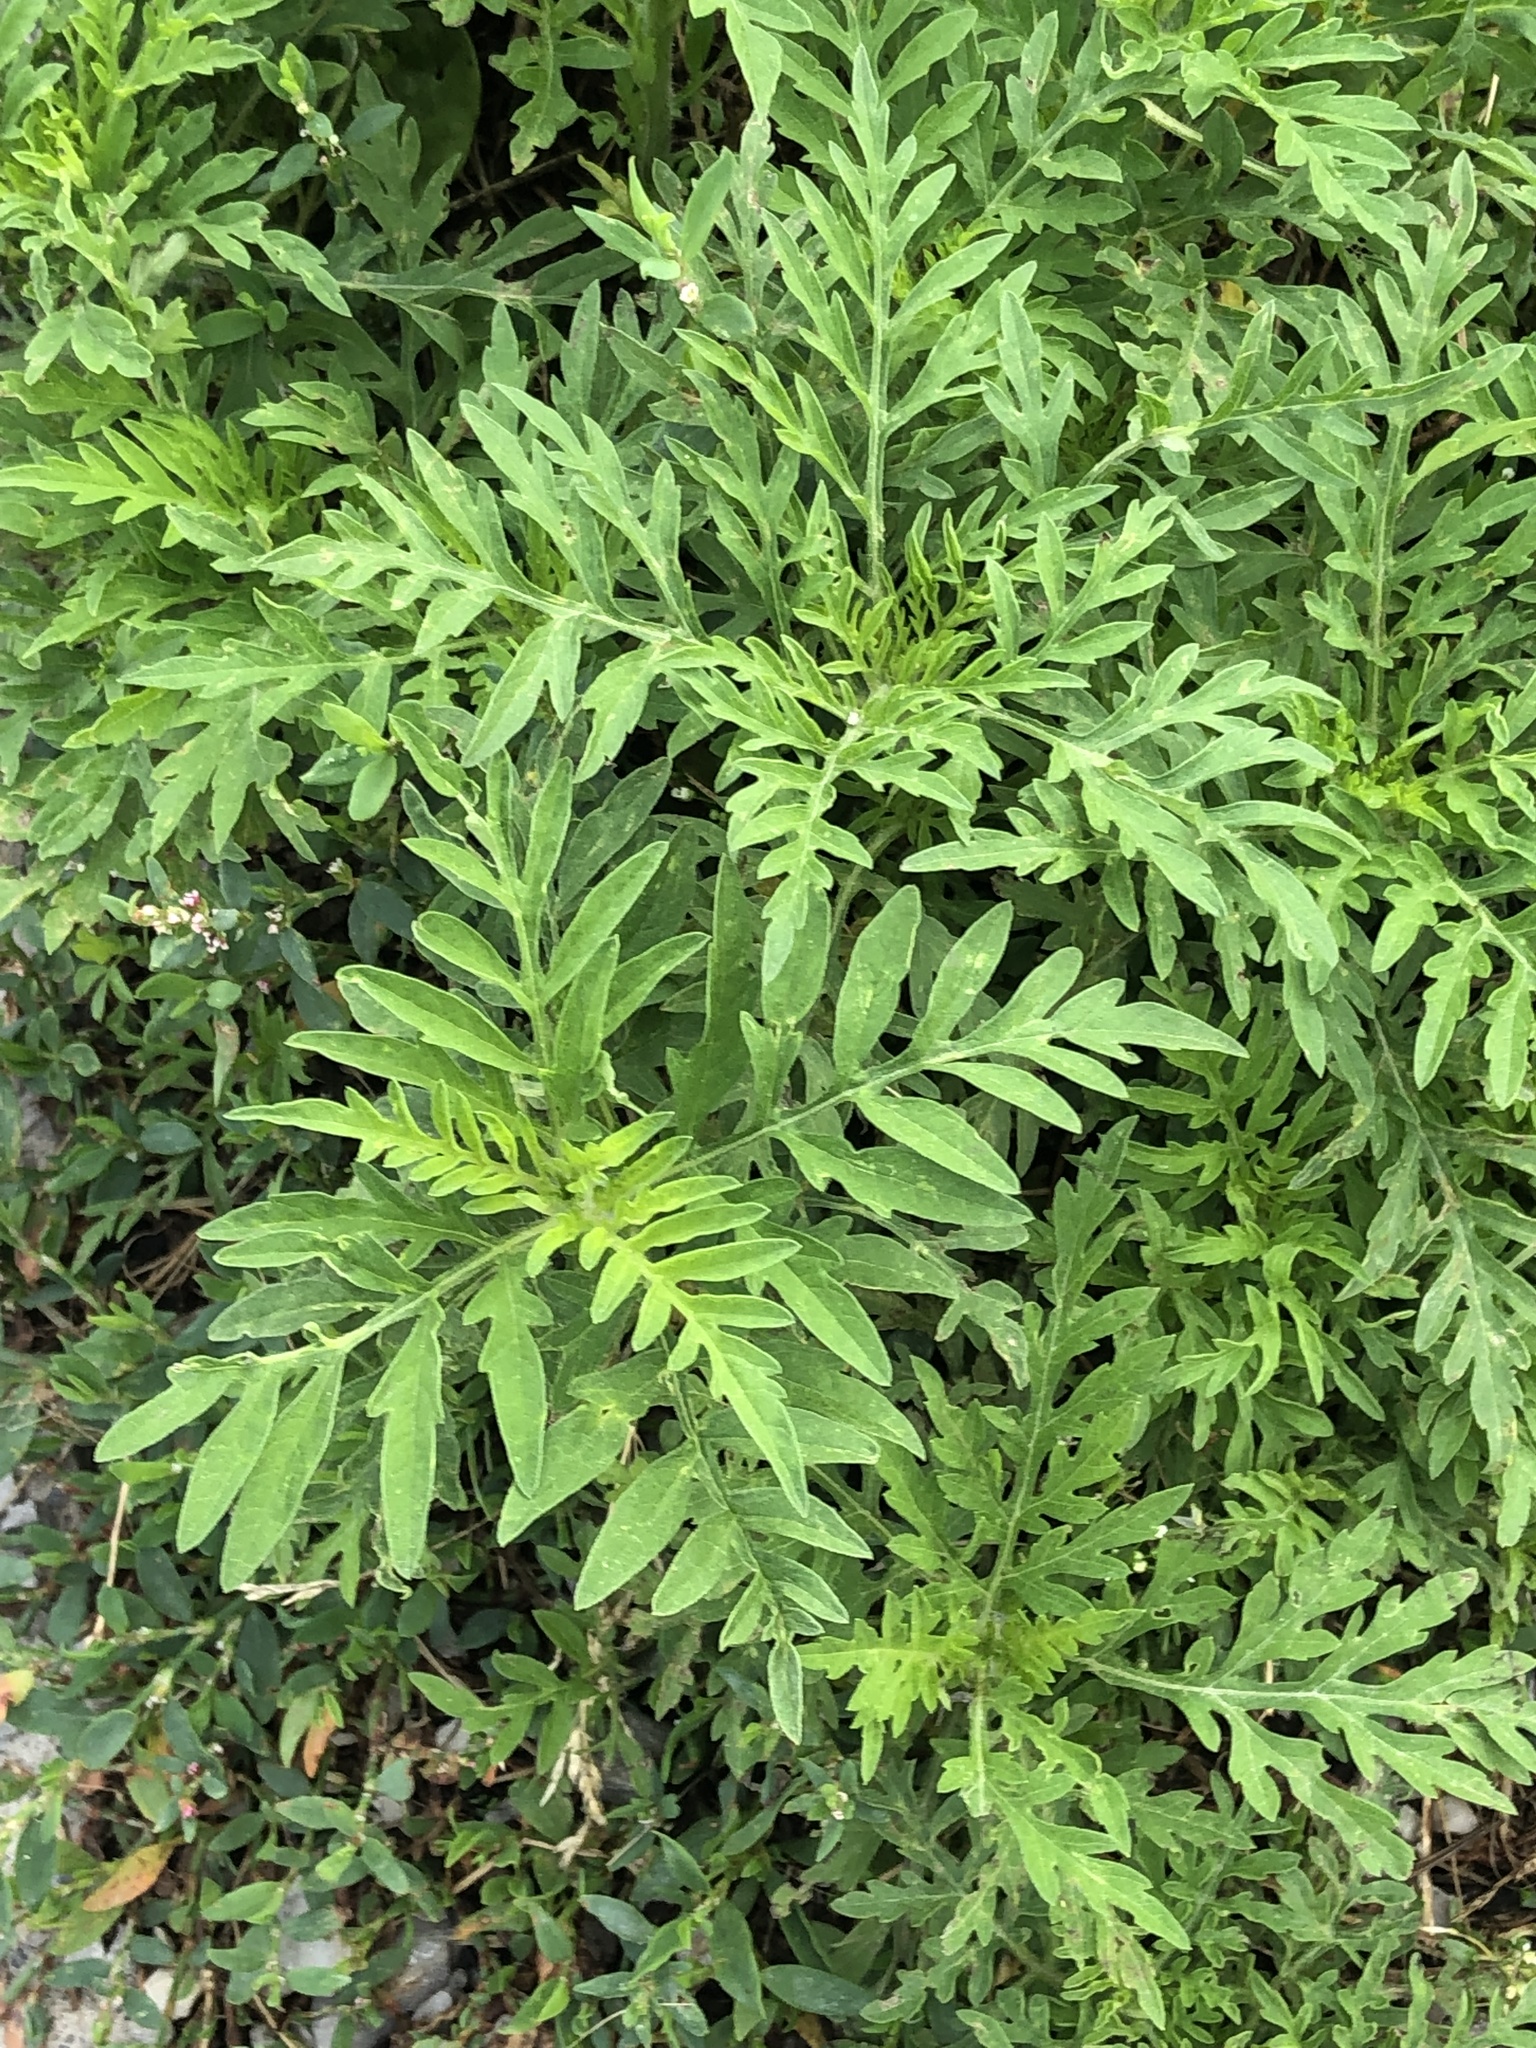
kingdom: Plantae
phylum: Tracheophyta
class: Magnoliopsida
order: Asterales
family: Asteraceae
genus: Ambrosia
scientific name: Ambrosia artemisiifolia
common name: Annual ragweed
